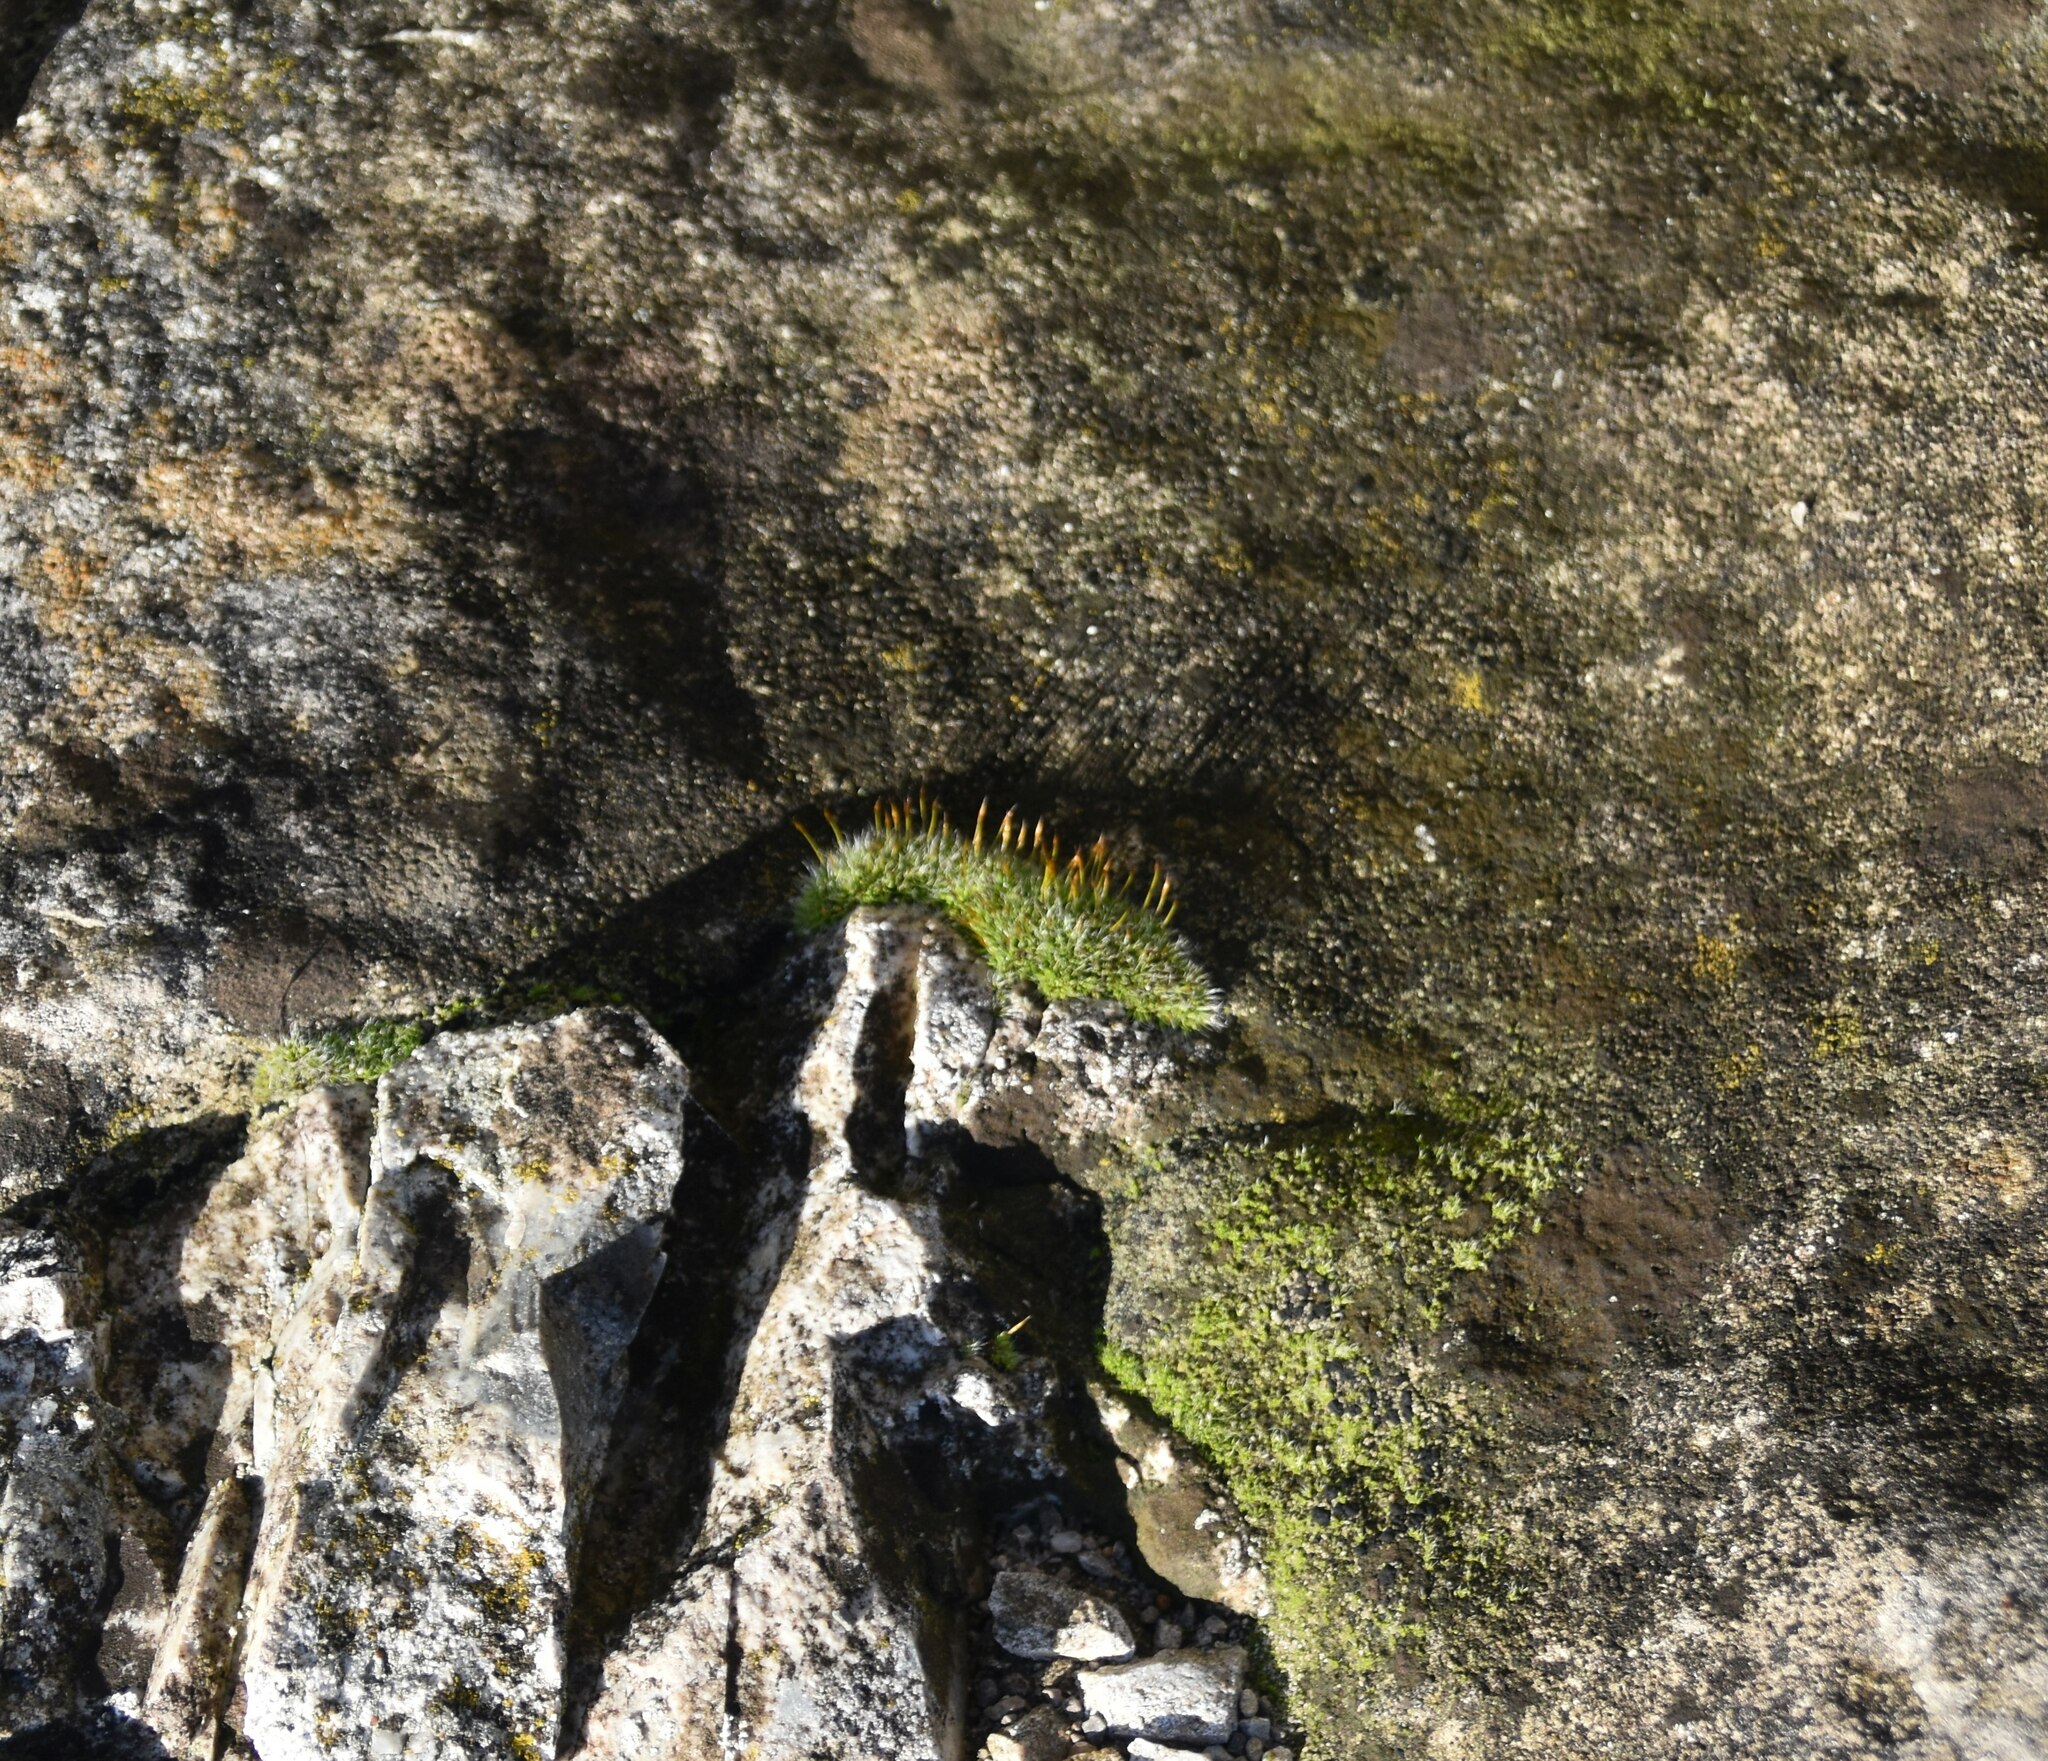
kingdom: Plantae
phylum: Bryophyta
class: Bryopsida
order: Pottiales
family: Pottiaceae
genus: Tortula
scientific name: Tortula muralis
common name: Wall screw-moss
